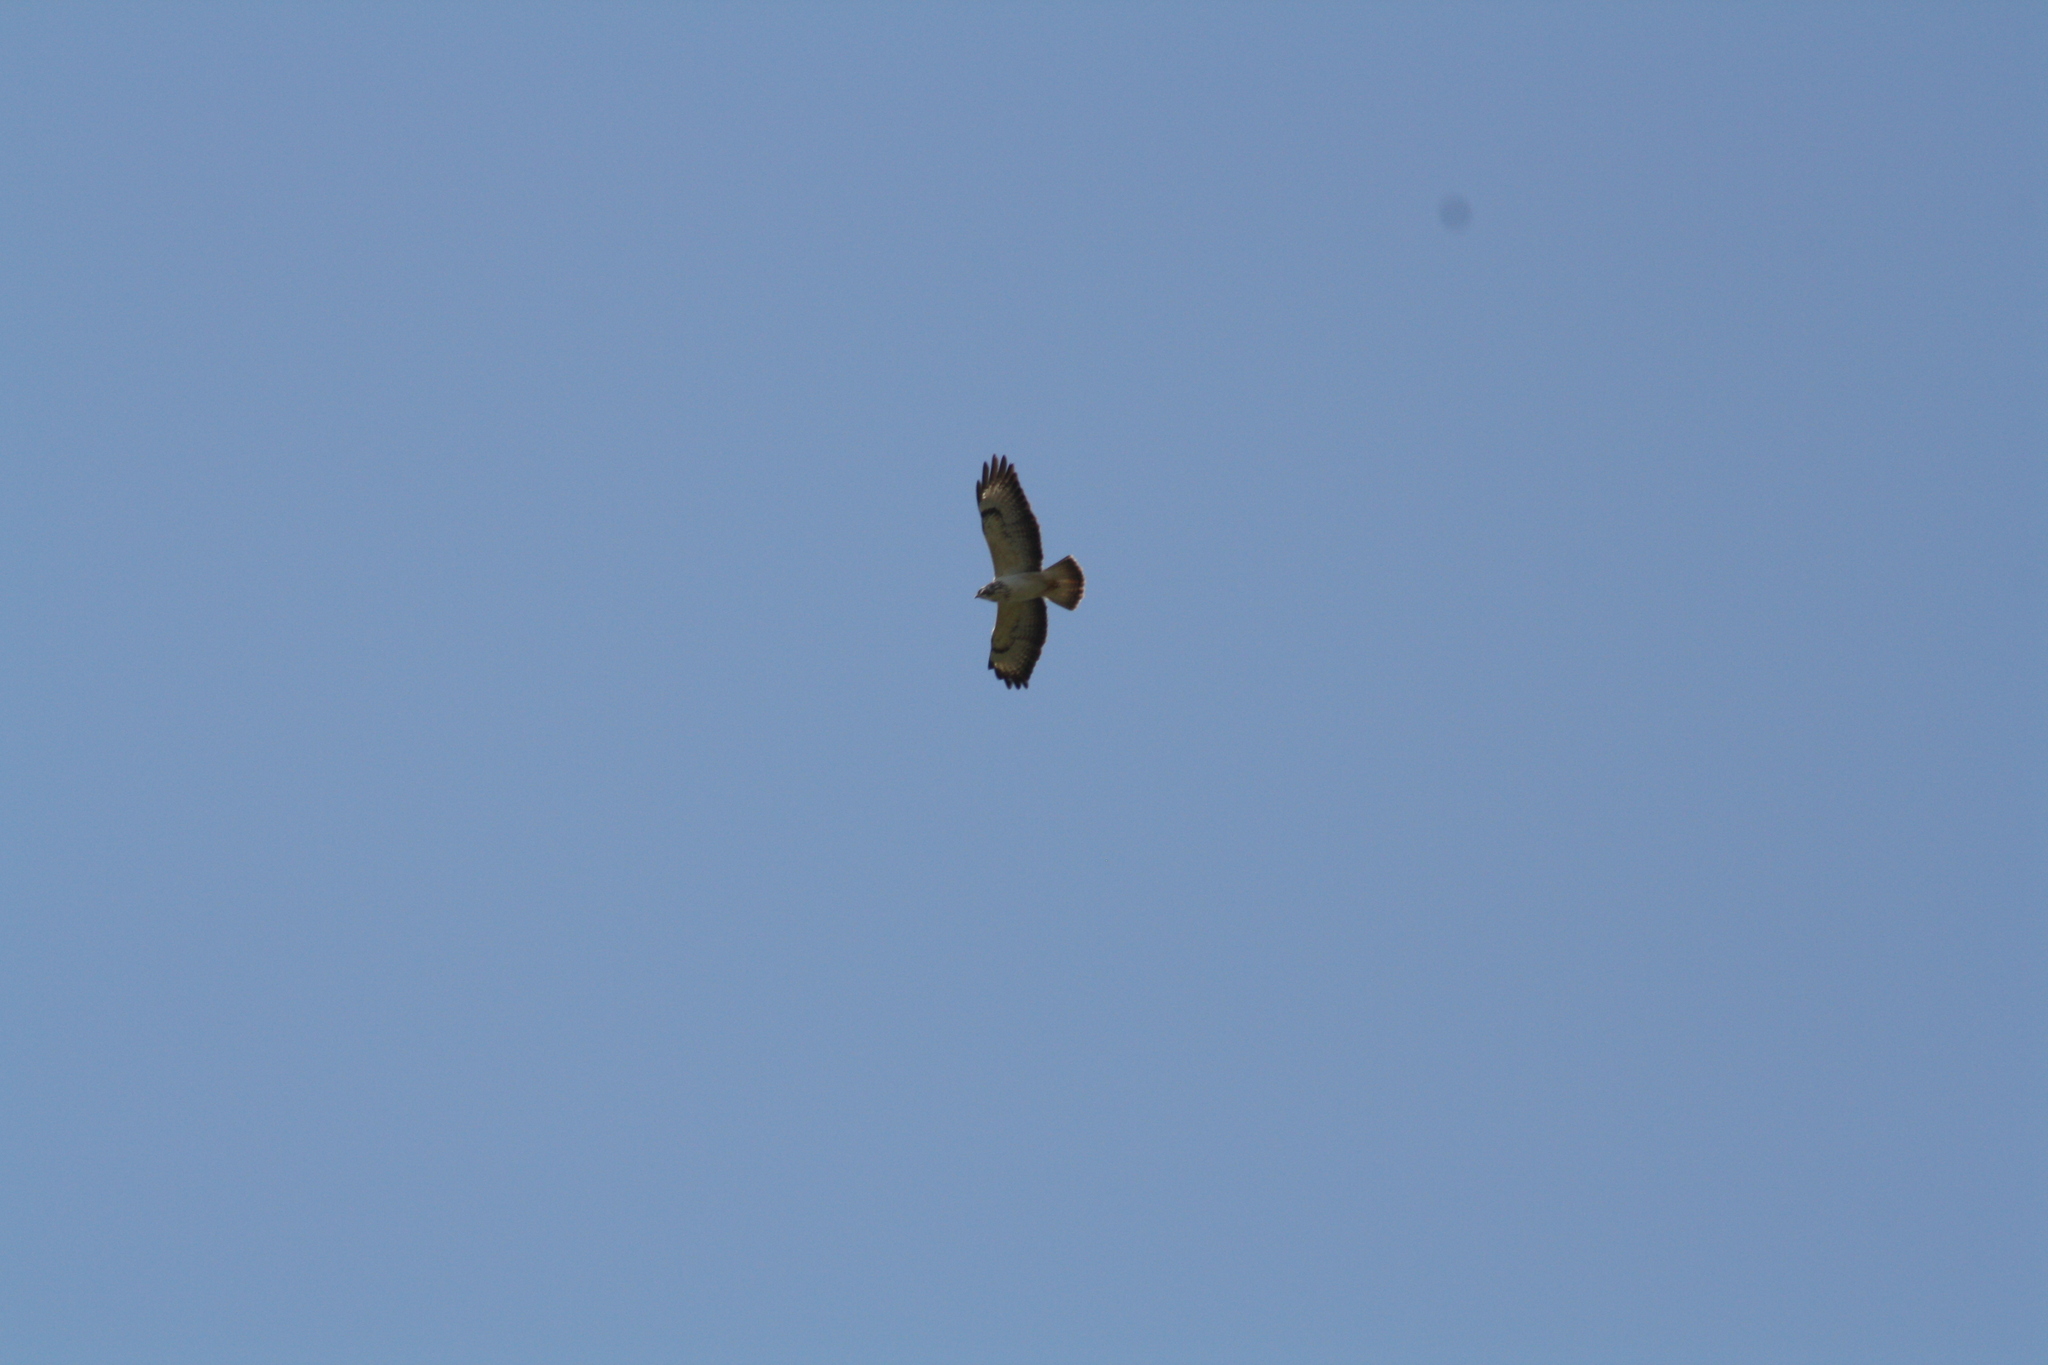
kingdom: Animalia
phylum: Chordata
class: Aves
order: Accipitriformes
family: Accipitridae
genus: Buteo
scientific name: Buteo buteo
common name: Common buzzard
